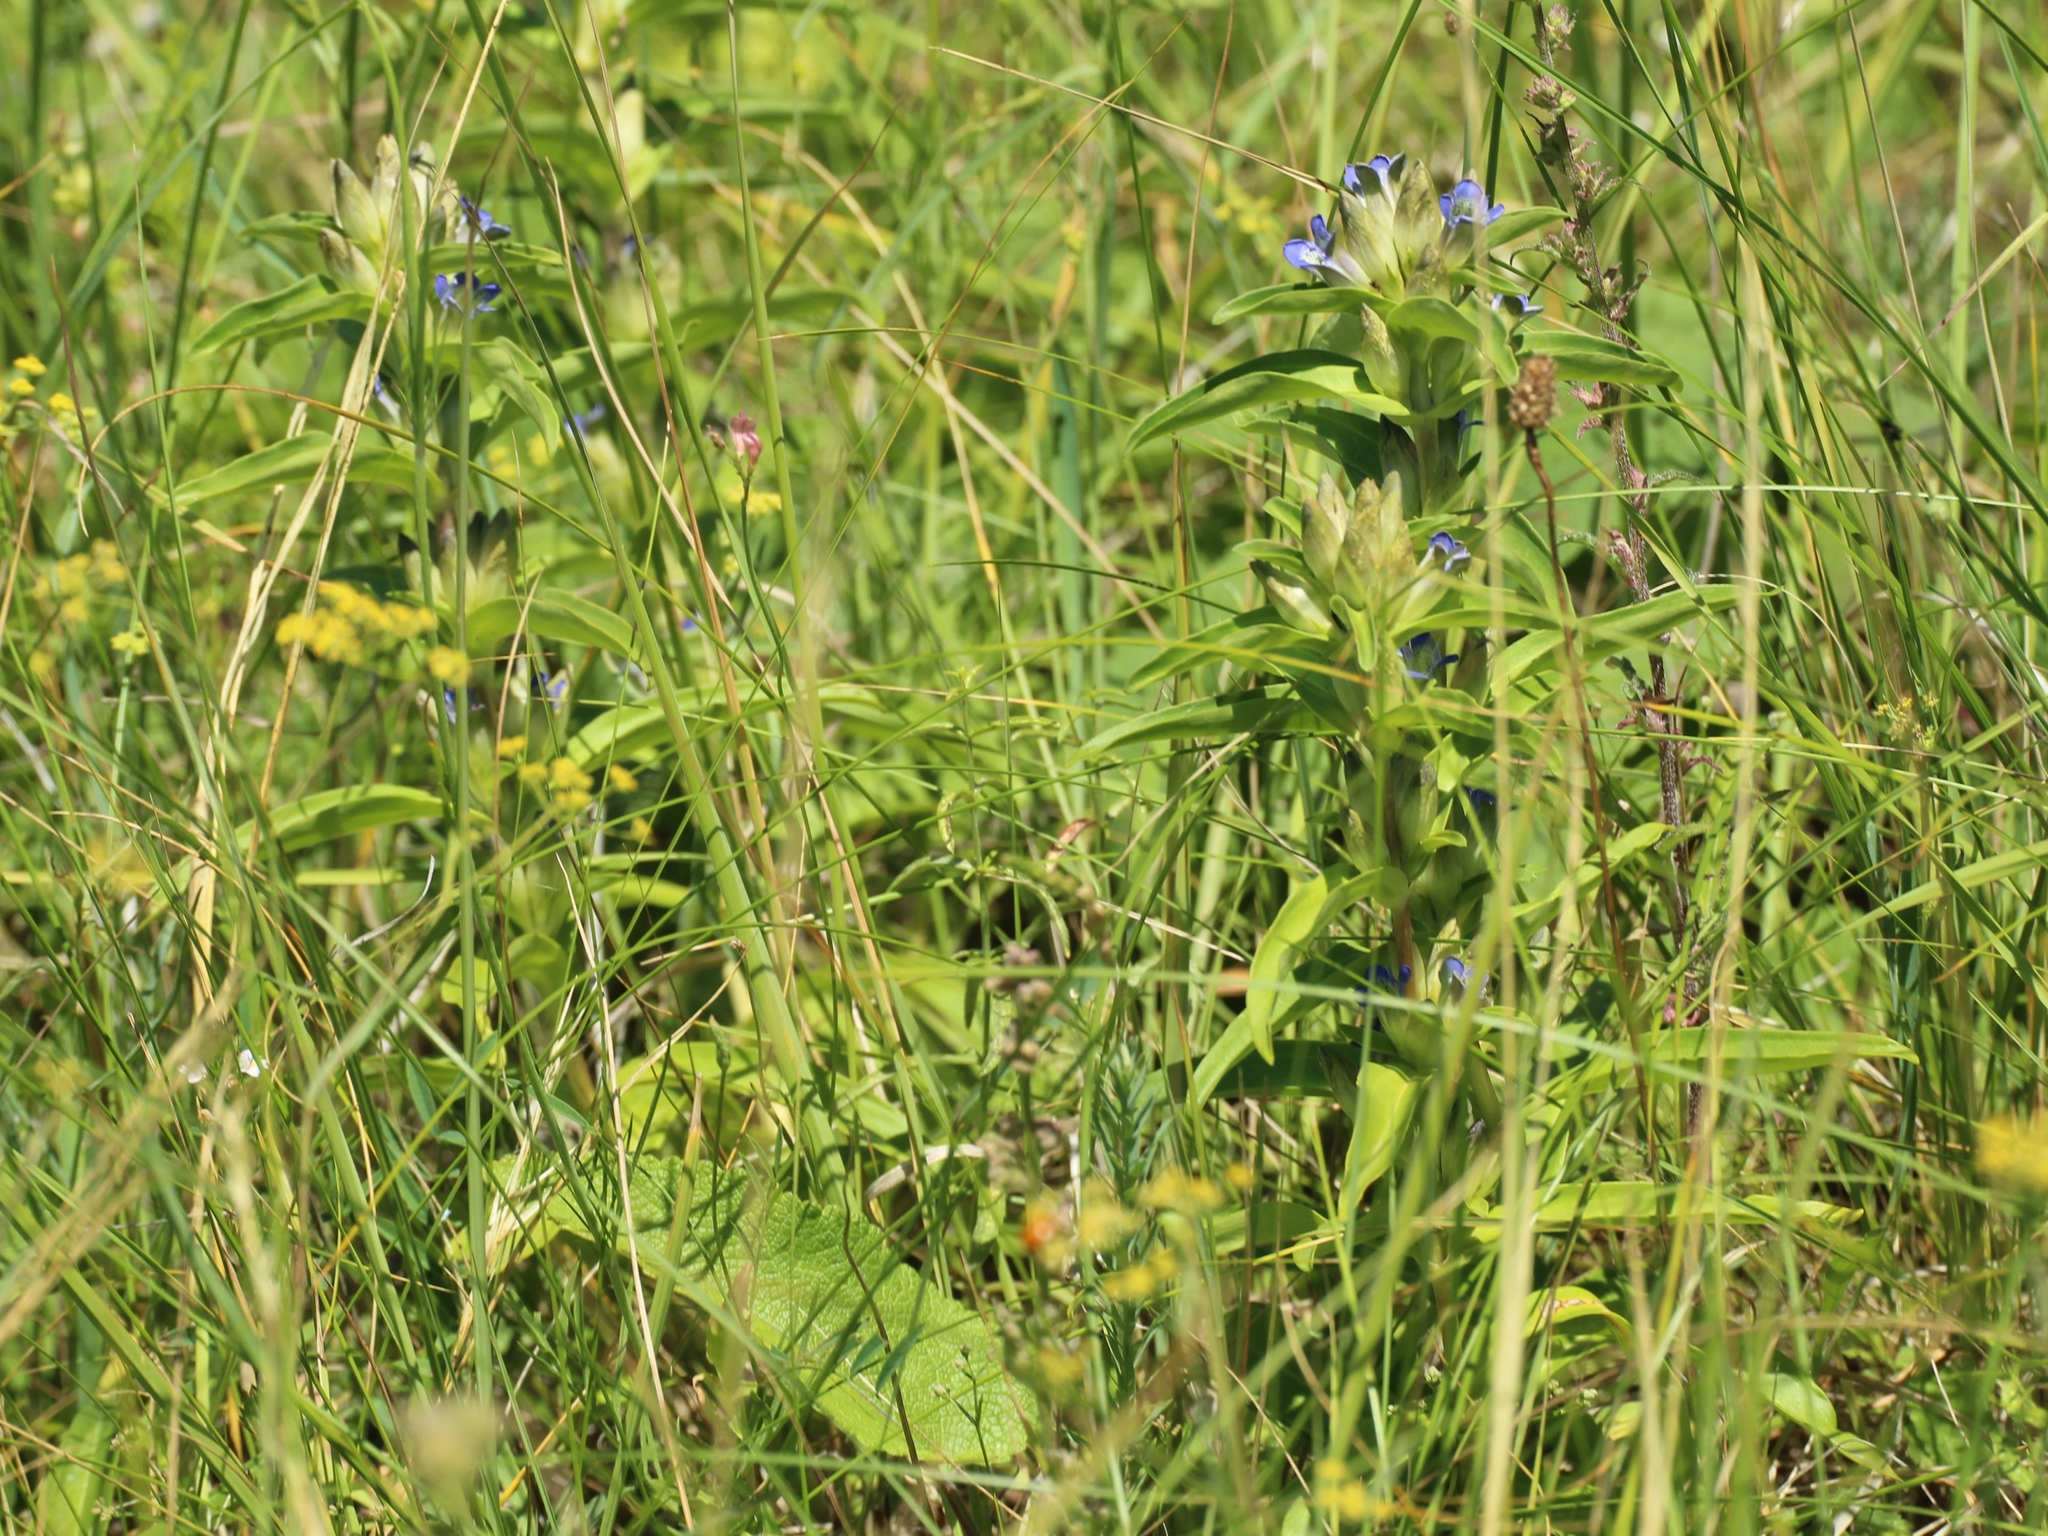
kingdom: Plantae
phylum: Tracheophyta
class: Magnoliopsida
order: Gentianales
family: Gentianaceae
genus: Gentiana
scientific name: Gentiana cruciata
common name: Cross gentian
